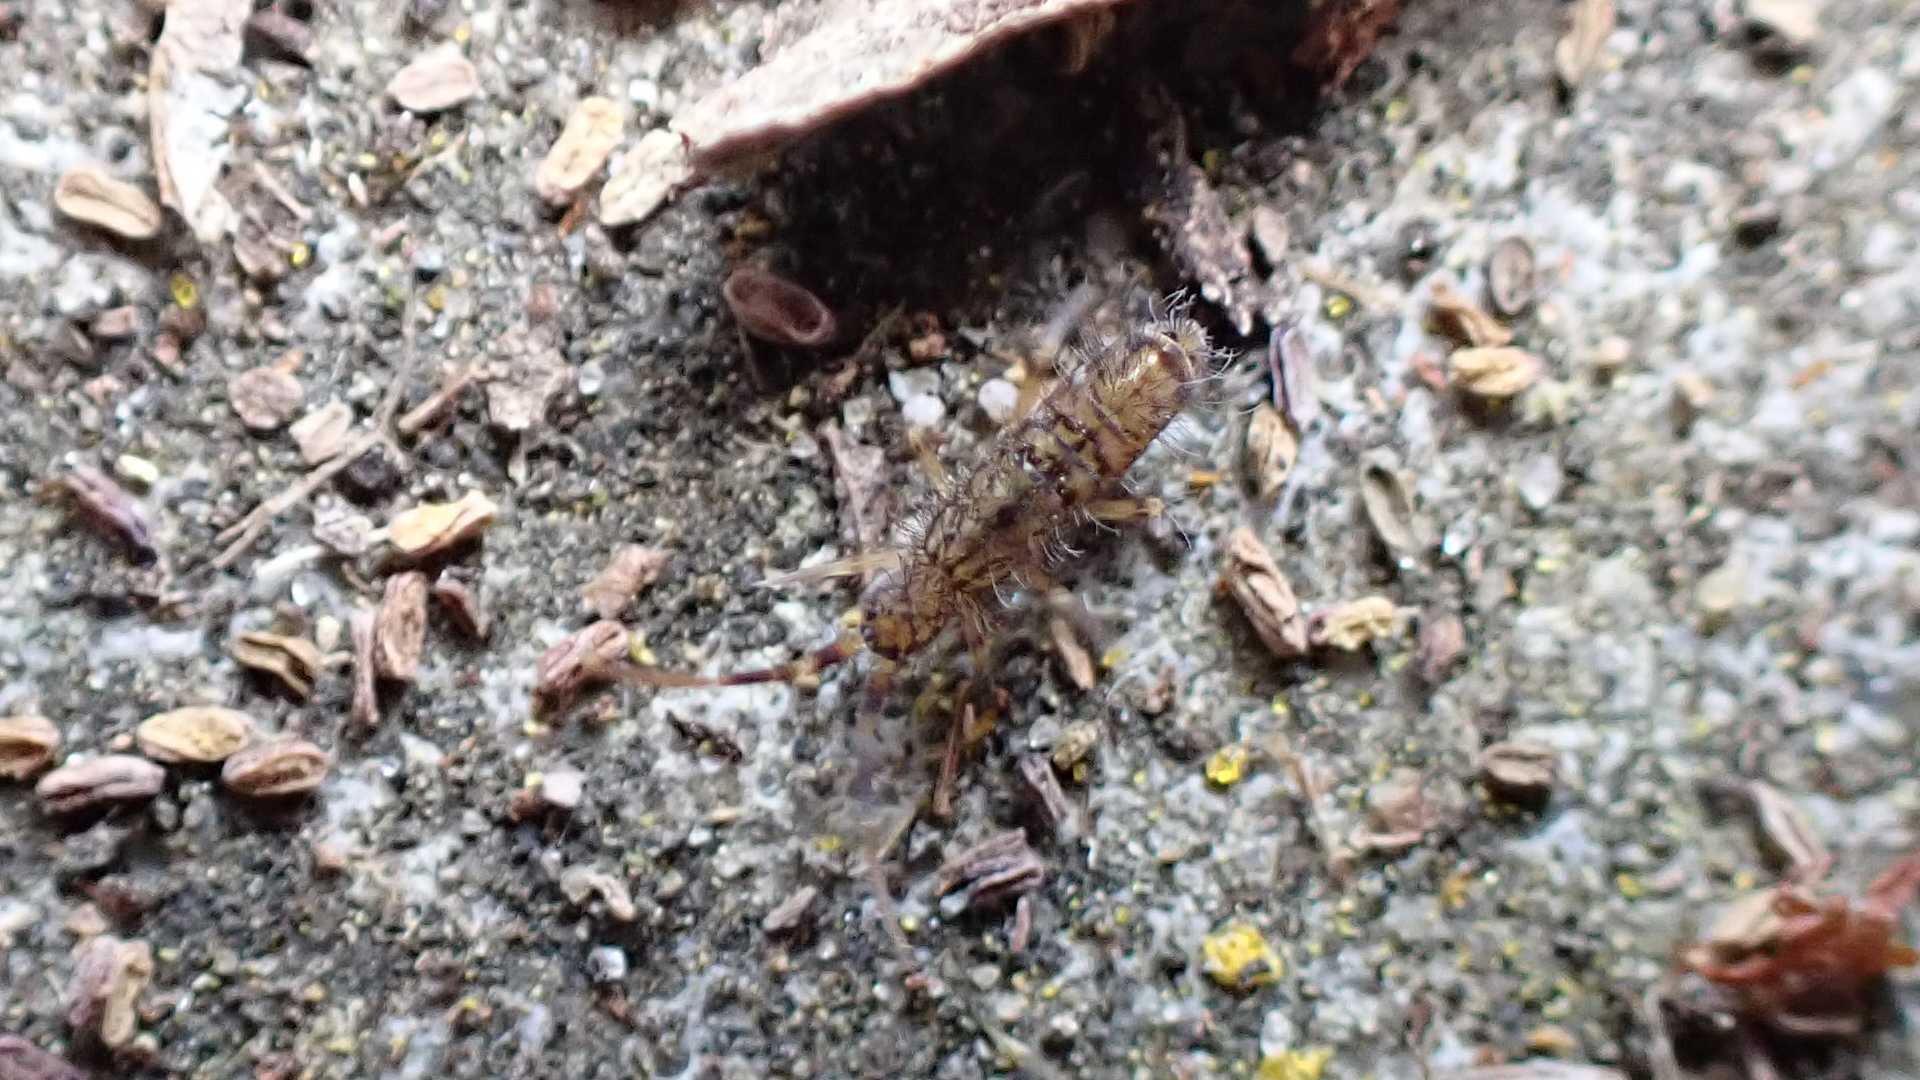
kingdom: Animalia
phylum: Arthropoda
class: Collembola
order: Entomobryomorpha
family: Orchesellidae
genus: Orchesella
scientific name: Orchesella villosa
